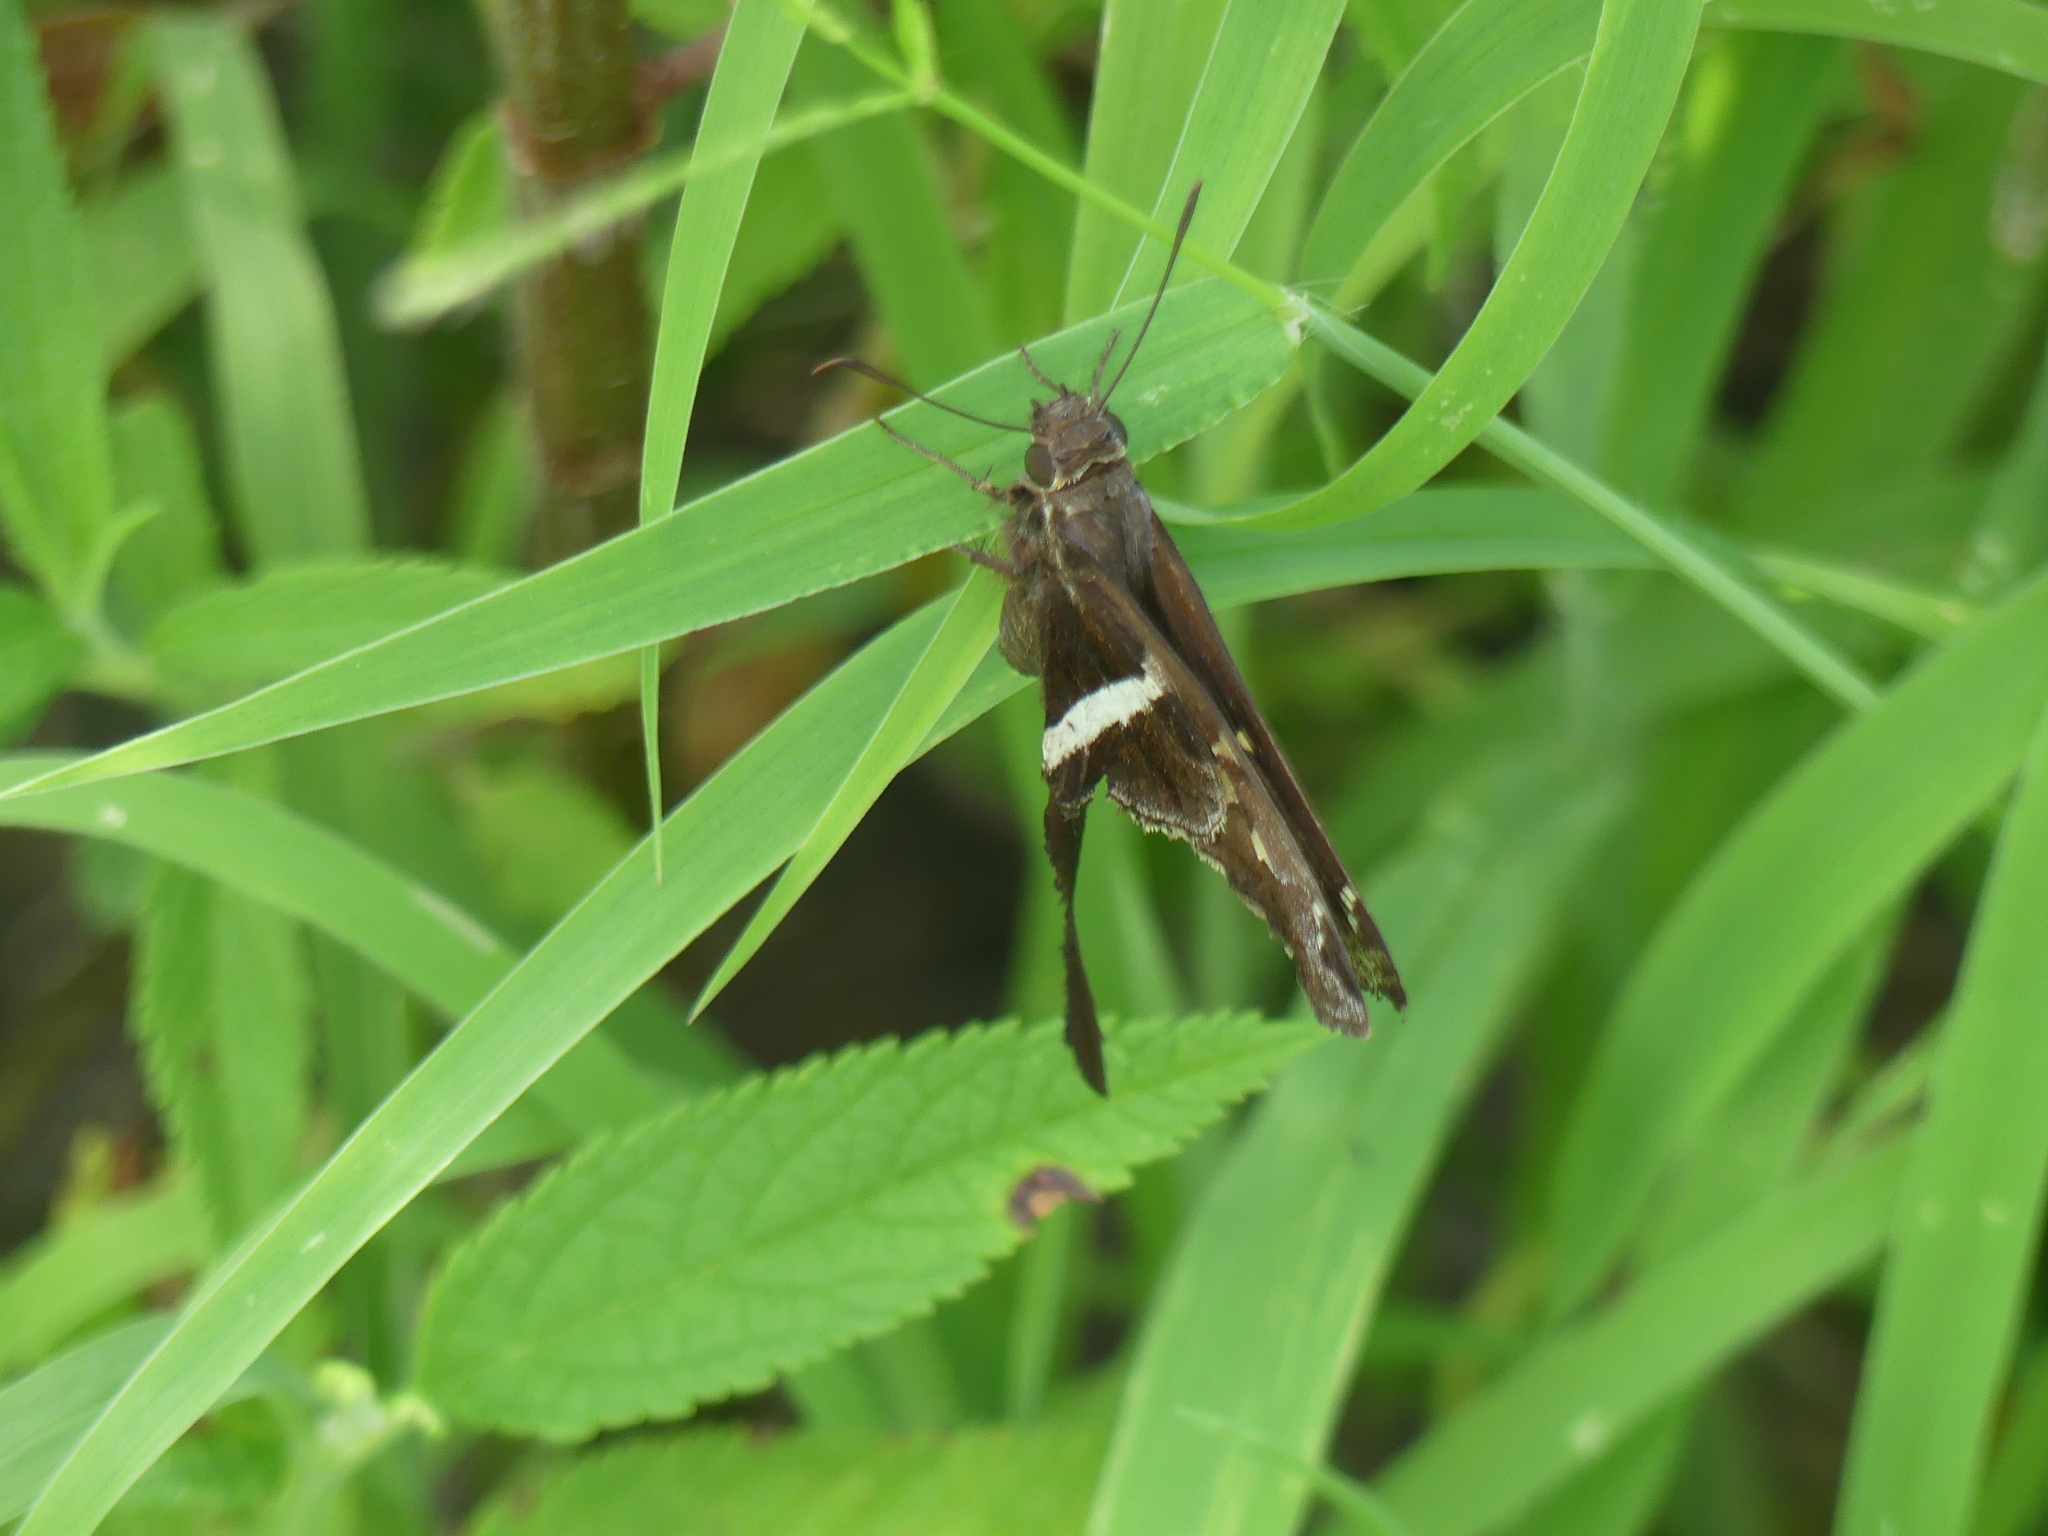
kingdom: Animalia
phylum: Arthropoda
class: Insecta
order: Lepidoptera
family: Hesperiidae
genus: Chioides
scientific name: Chioides catillus
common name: Silverbanded skipper
